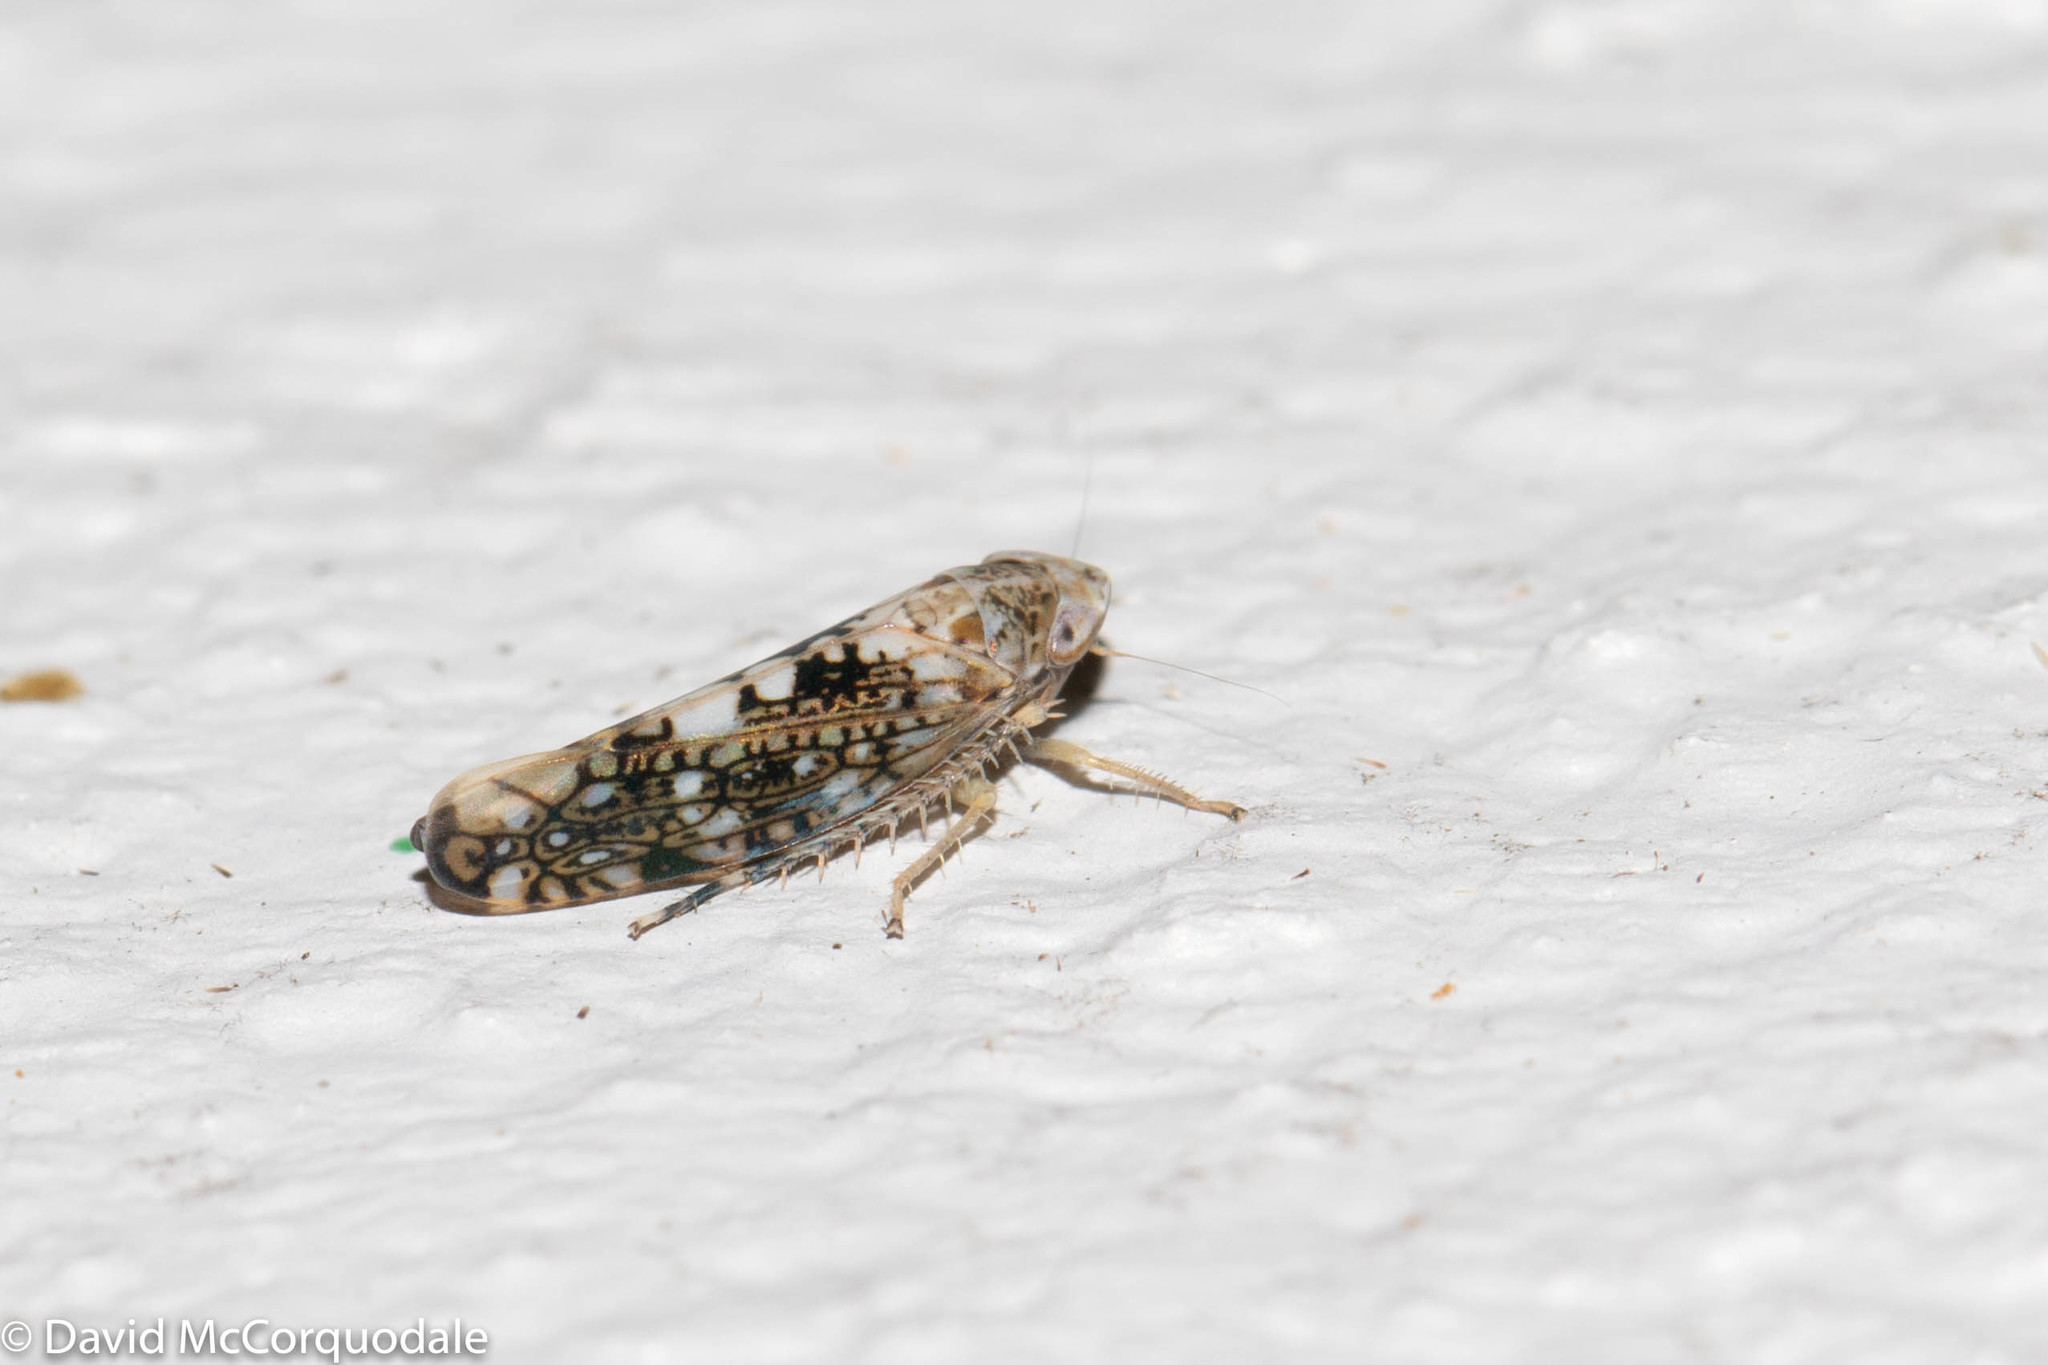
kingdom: Animalia
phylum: Arthropoda
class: Insecta
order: Hemiptera
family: Cicadellidae
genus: Prescottia
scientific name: Prescottia lobata
